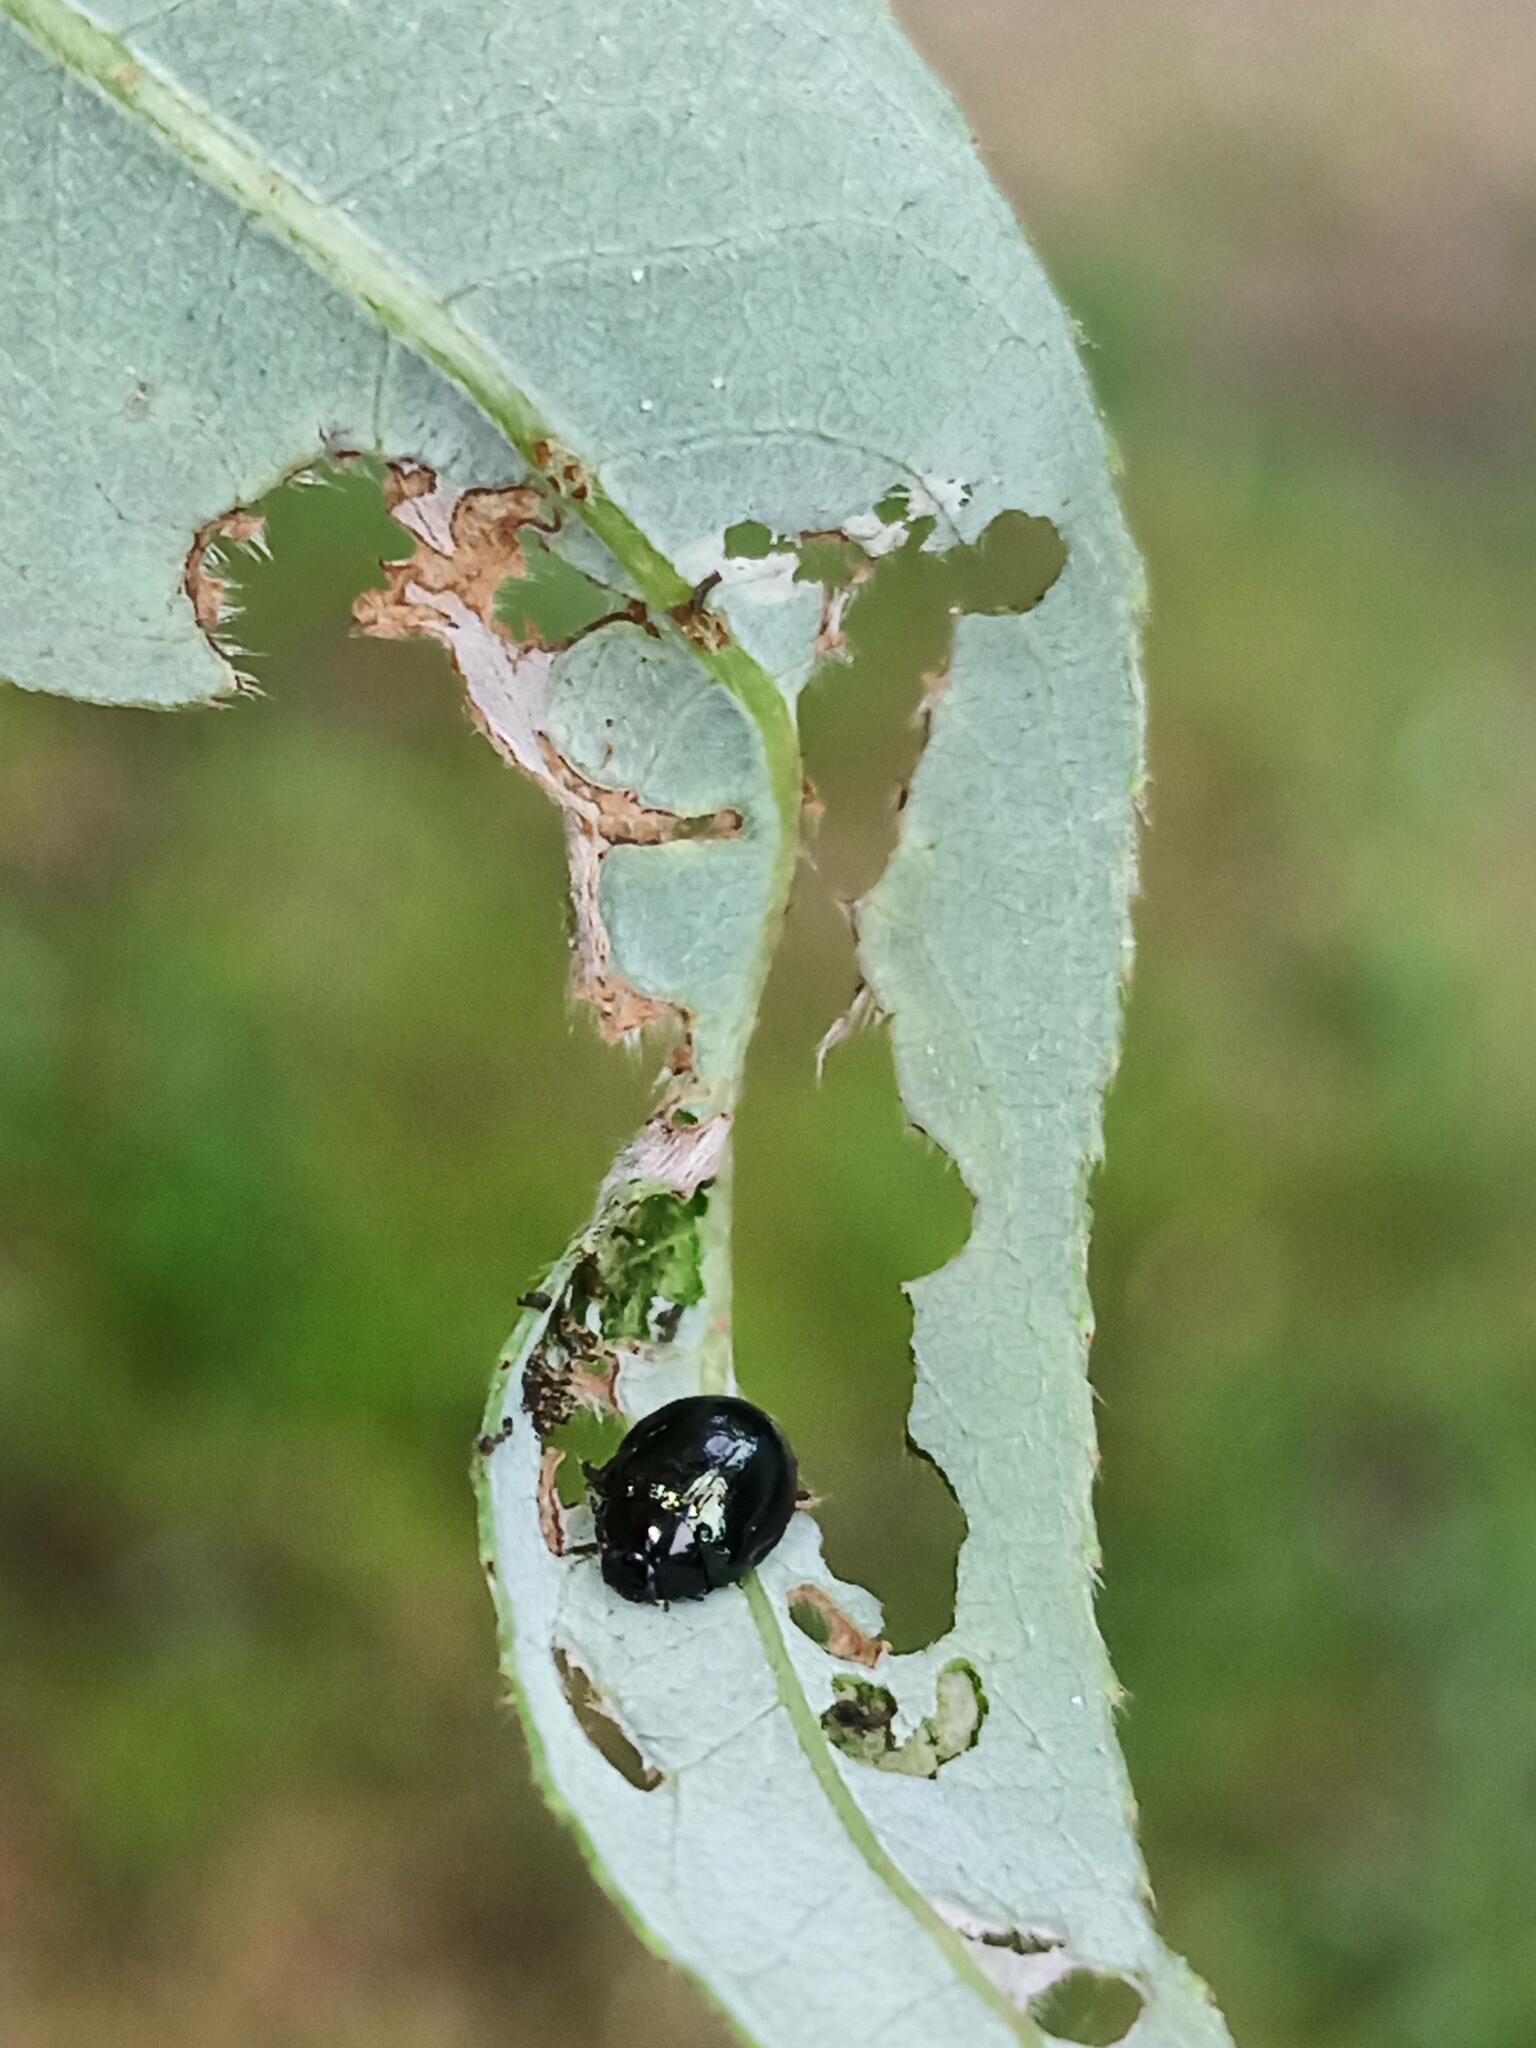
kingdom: Animalia
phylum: Arthropoda
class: Insecta
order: Coleoptera
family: Chrysomelidae
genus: Plagiodera
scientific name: Plagiodera versicolora
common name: Imported willow leaf beetle
